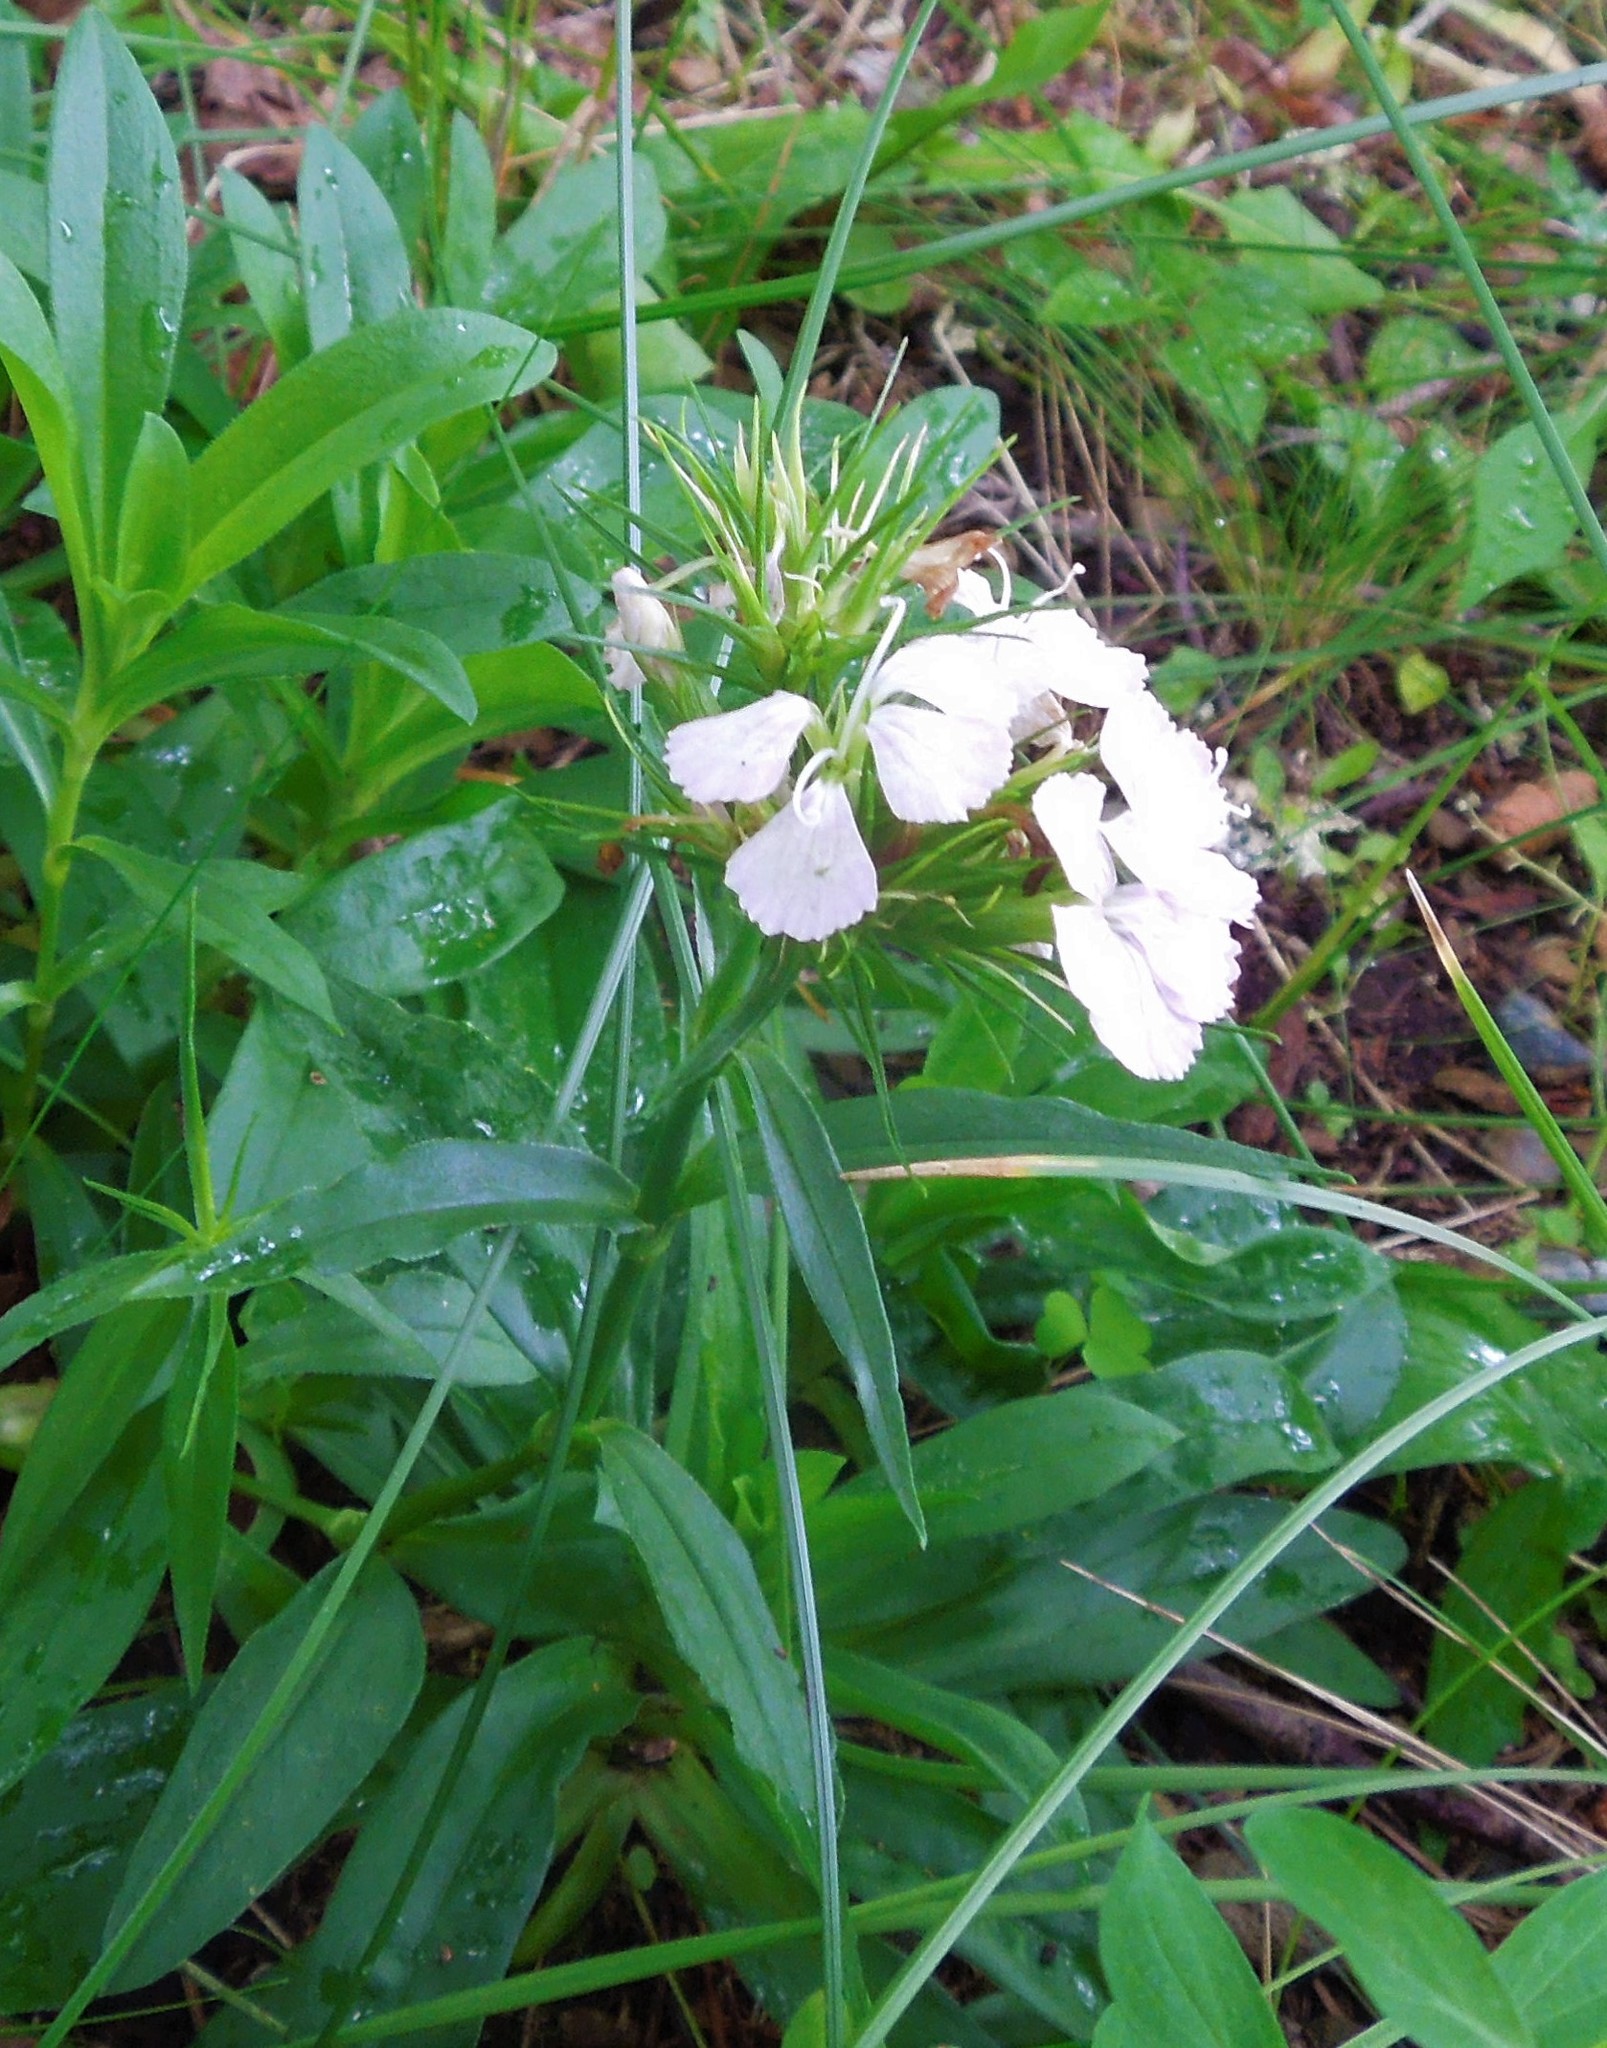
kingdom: Plantae
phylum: Tracheophyta
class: Magnoliopsida
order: Caryophyllales
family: Caryophyllaceae
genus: Dianthus
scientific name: Dianthus barbatus
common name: Sweet-william
